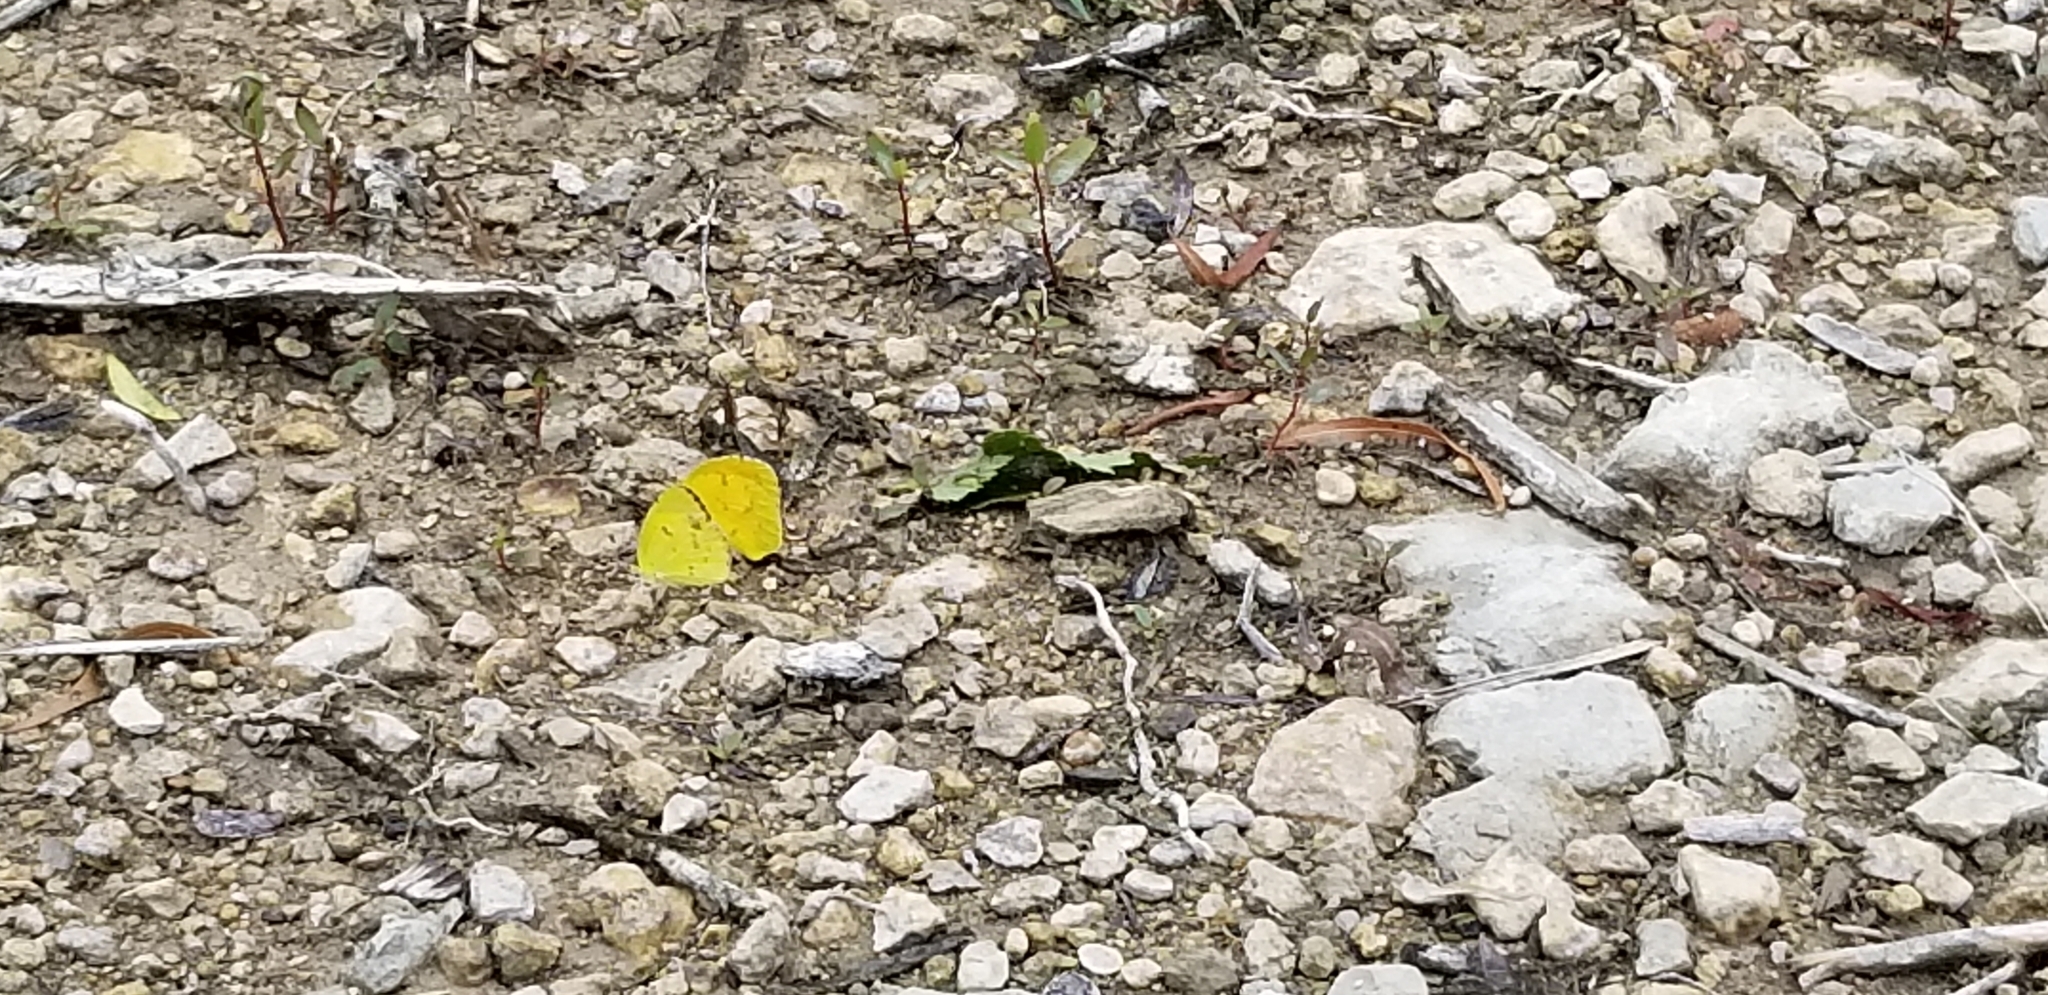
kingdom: Animalia
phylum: Arthropoda
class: Insecta
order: Lepidoptera
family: Pieridae
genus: Abaeis
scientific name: Abaeis nicippe
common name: Sleepy orange
